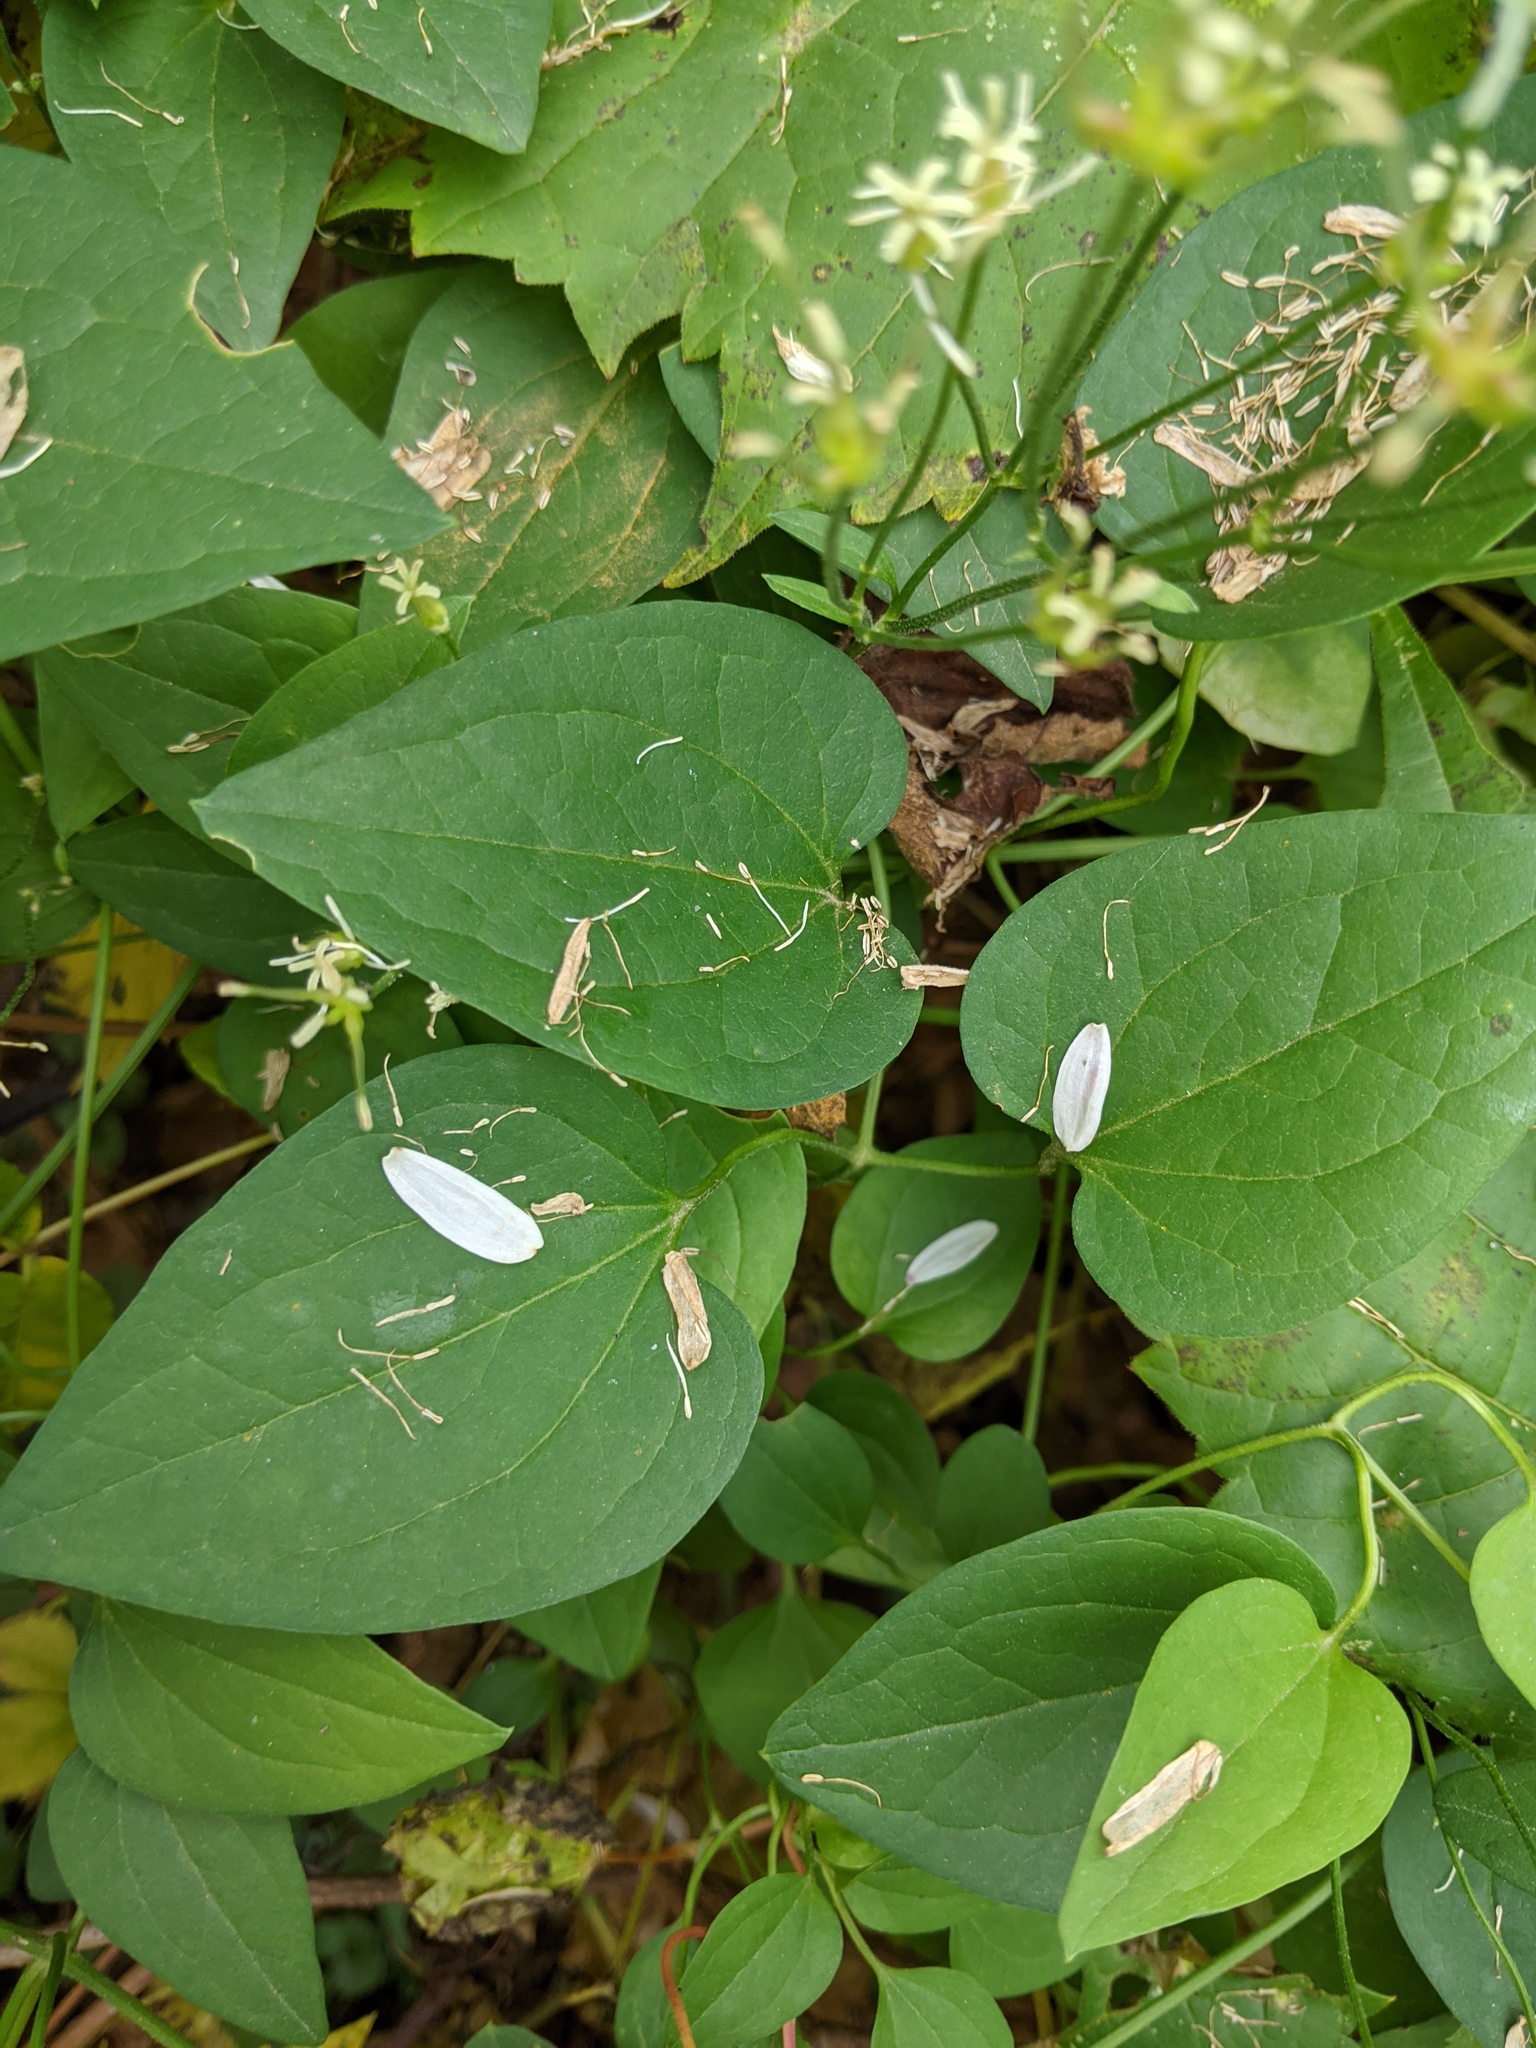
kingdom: Plantae
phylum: Tracheophyta
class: Magnoliopsida
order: Ranunculales
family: Ranunculaceae
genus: Clematis
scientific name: Clematis terniflora
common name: Sweet autumn clematis
